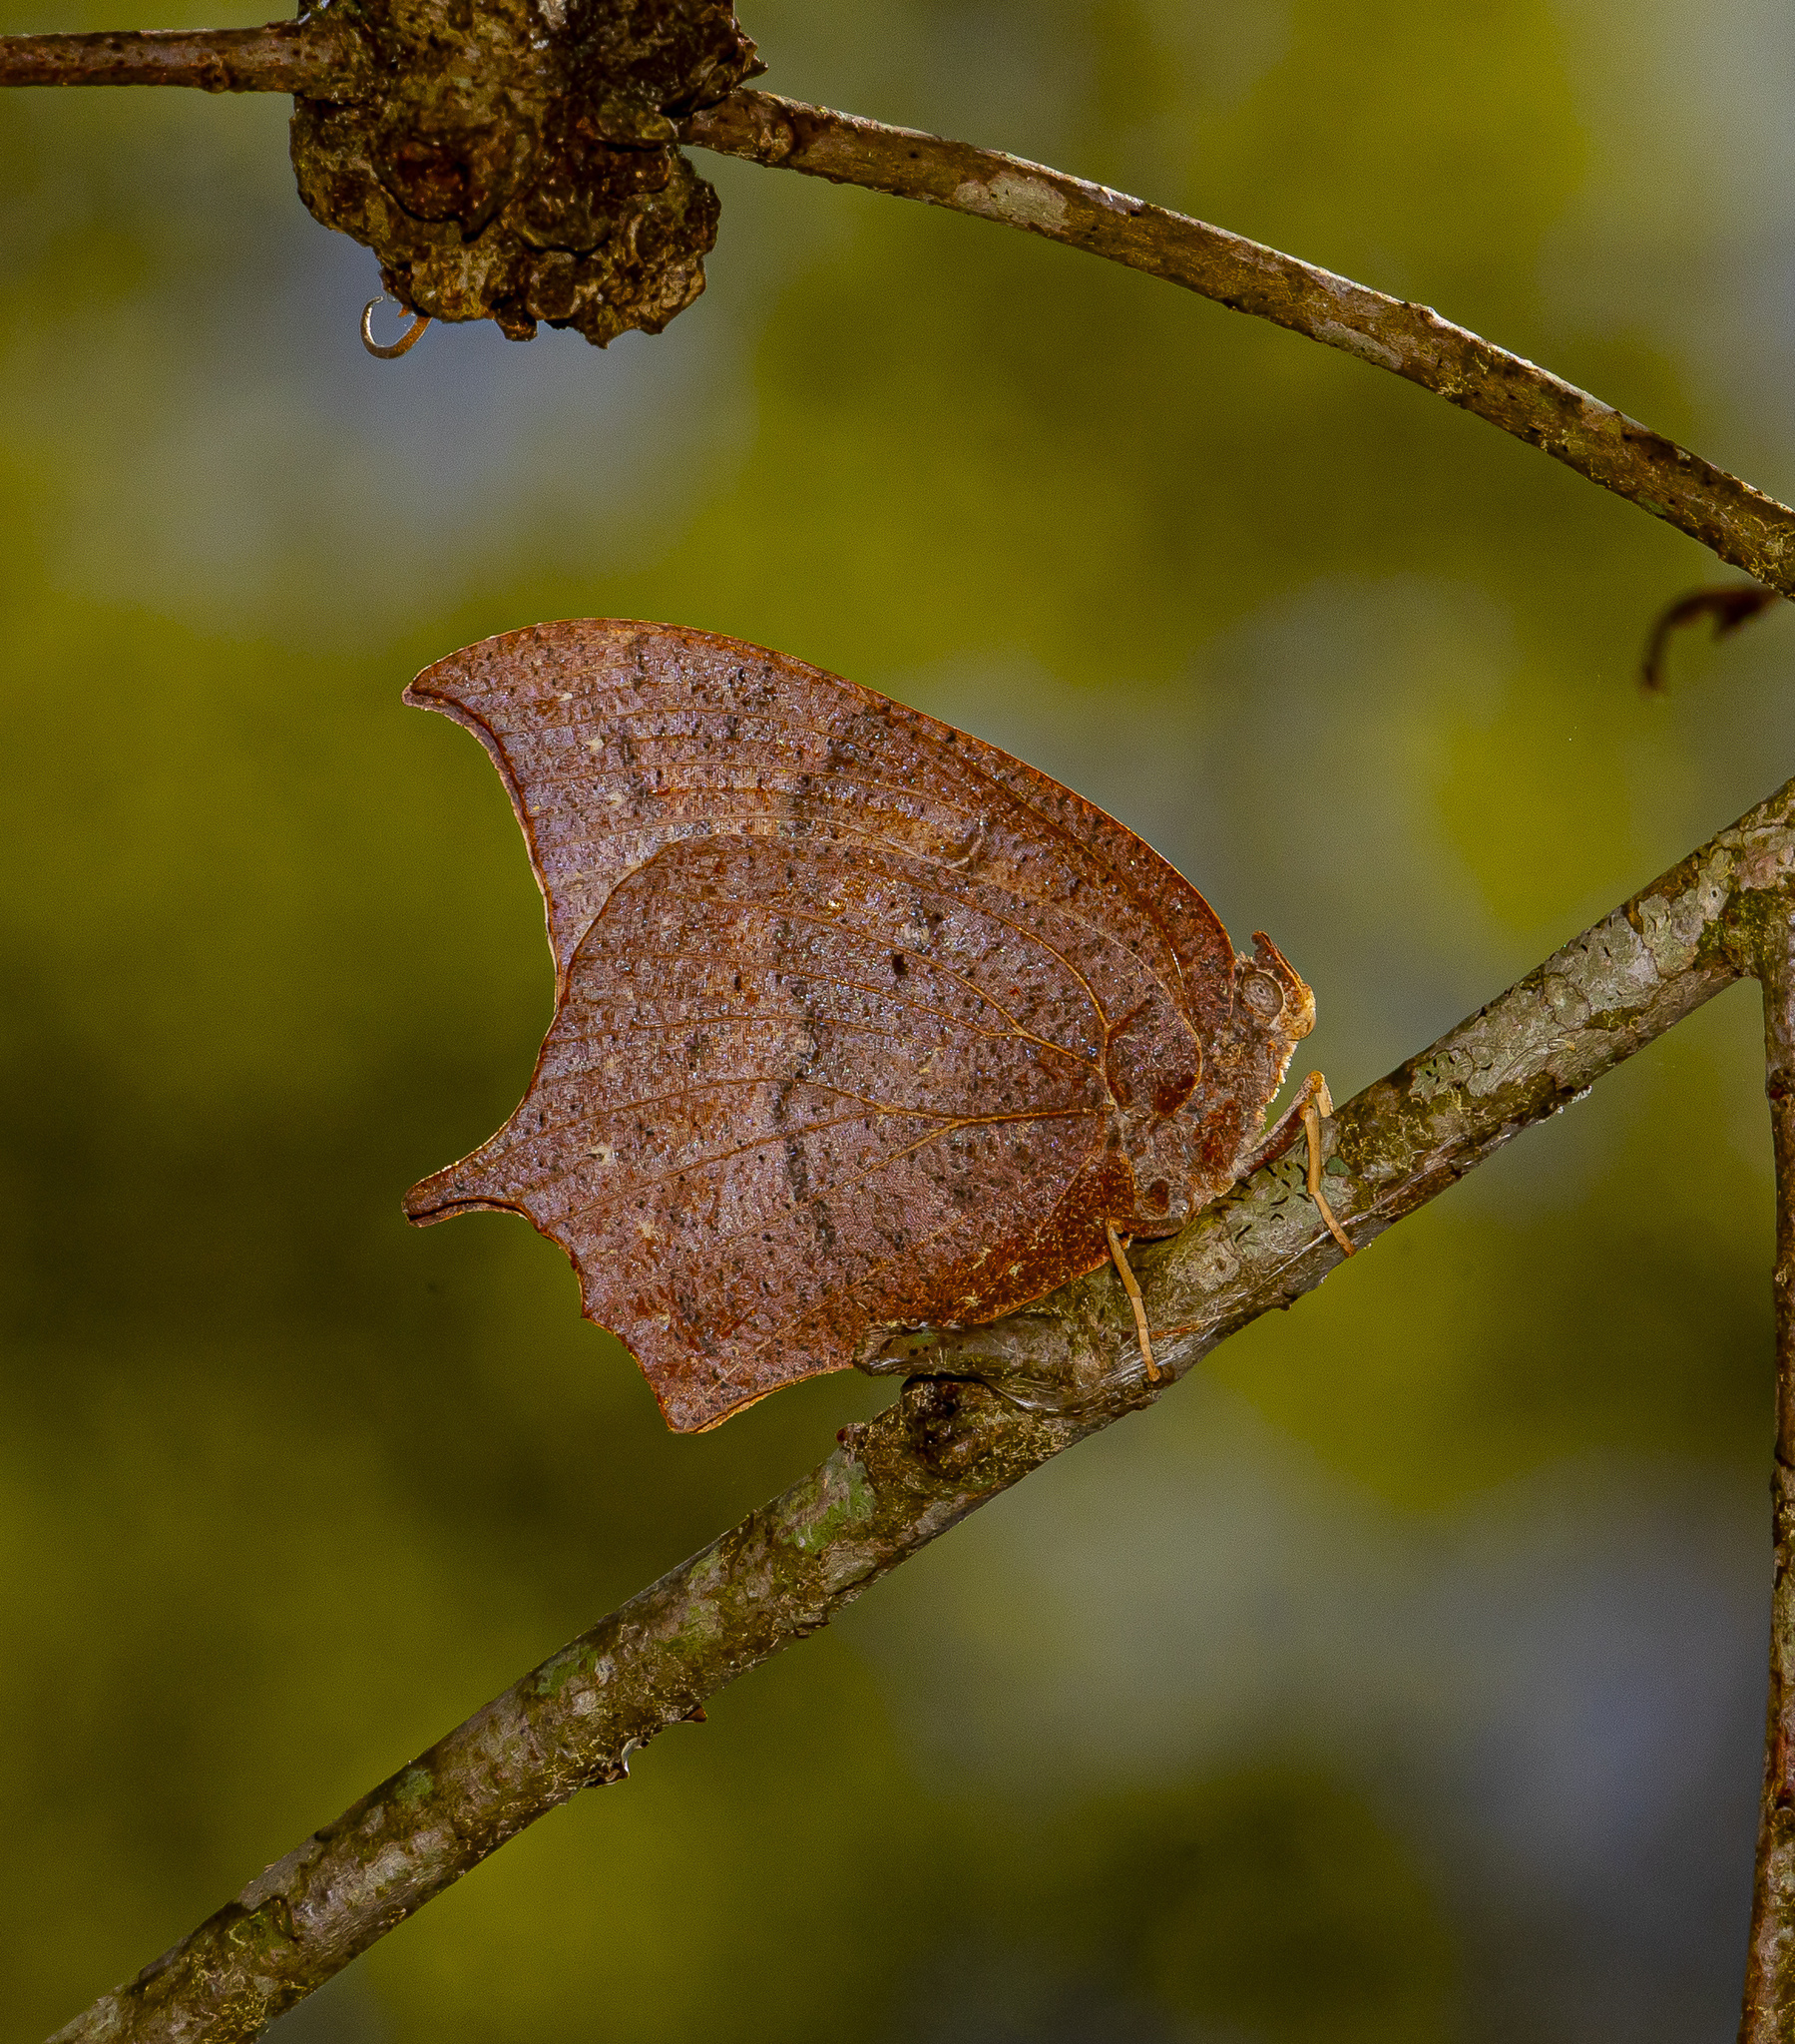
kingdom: Animalia
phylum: Arthropoda
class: Insecta
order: Lepidoptera
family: Nymphalidae
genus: Anaea
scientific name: Anaea andria
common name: Goatweed leafwing
